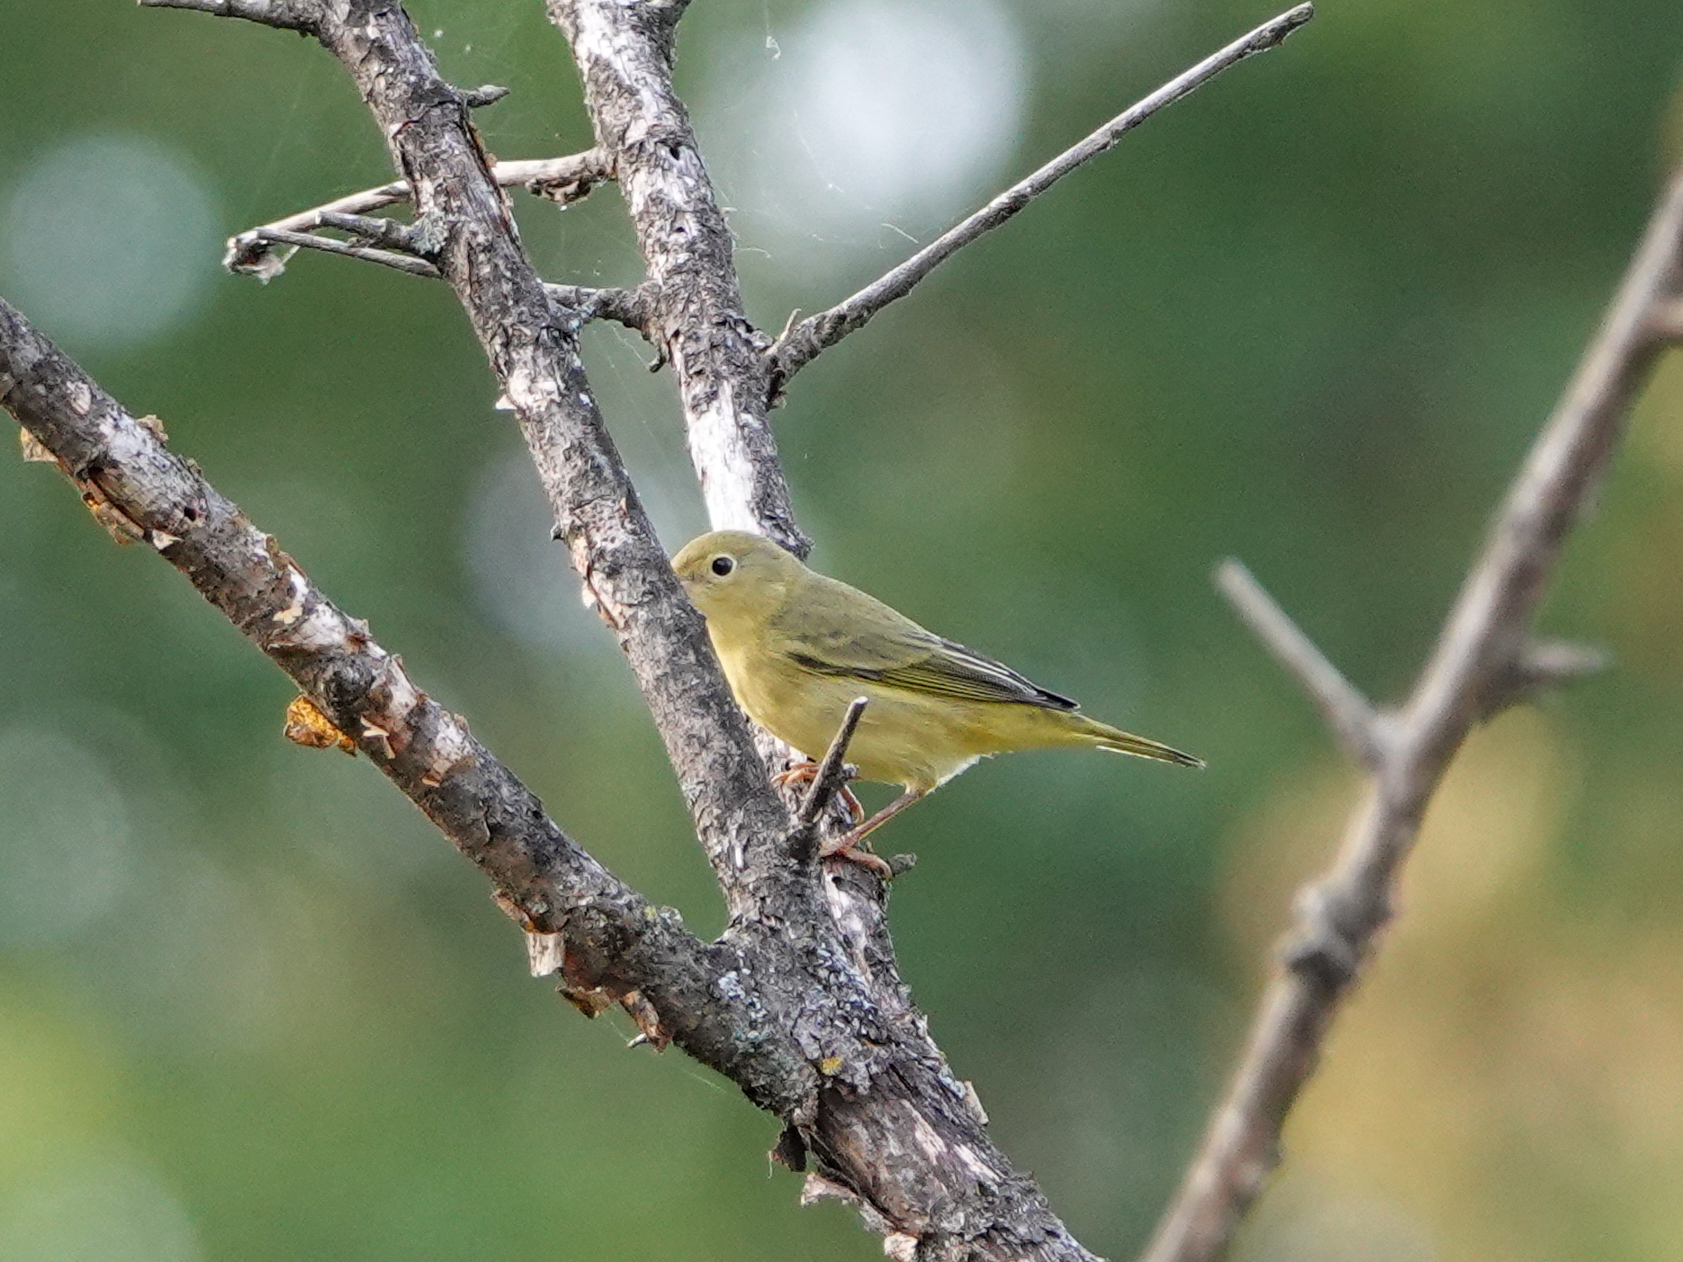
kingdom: Animalia
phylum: Chordata
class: Aves
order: Passeriformes
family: Parulidae
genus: Setophaga
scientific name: Setophaga petechia
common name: Yellow warbler
